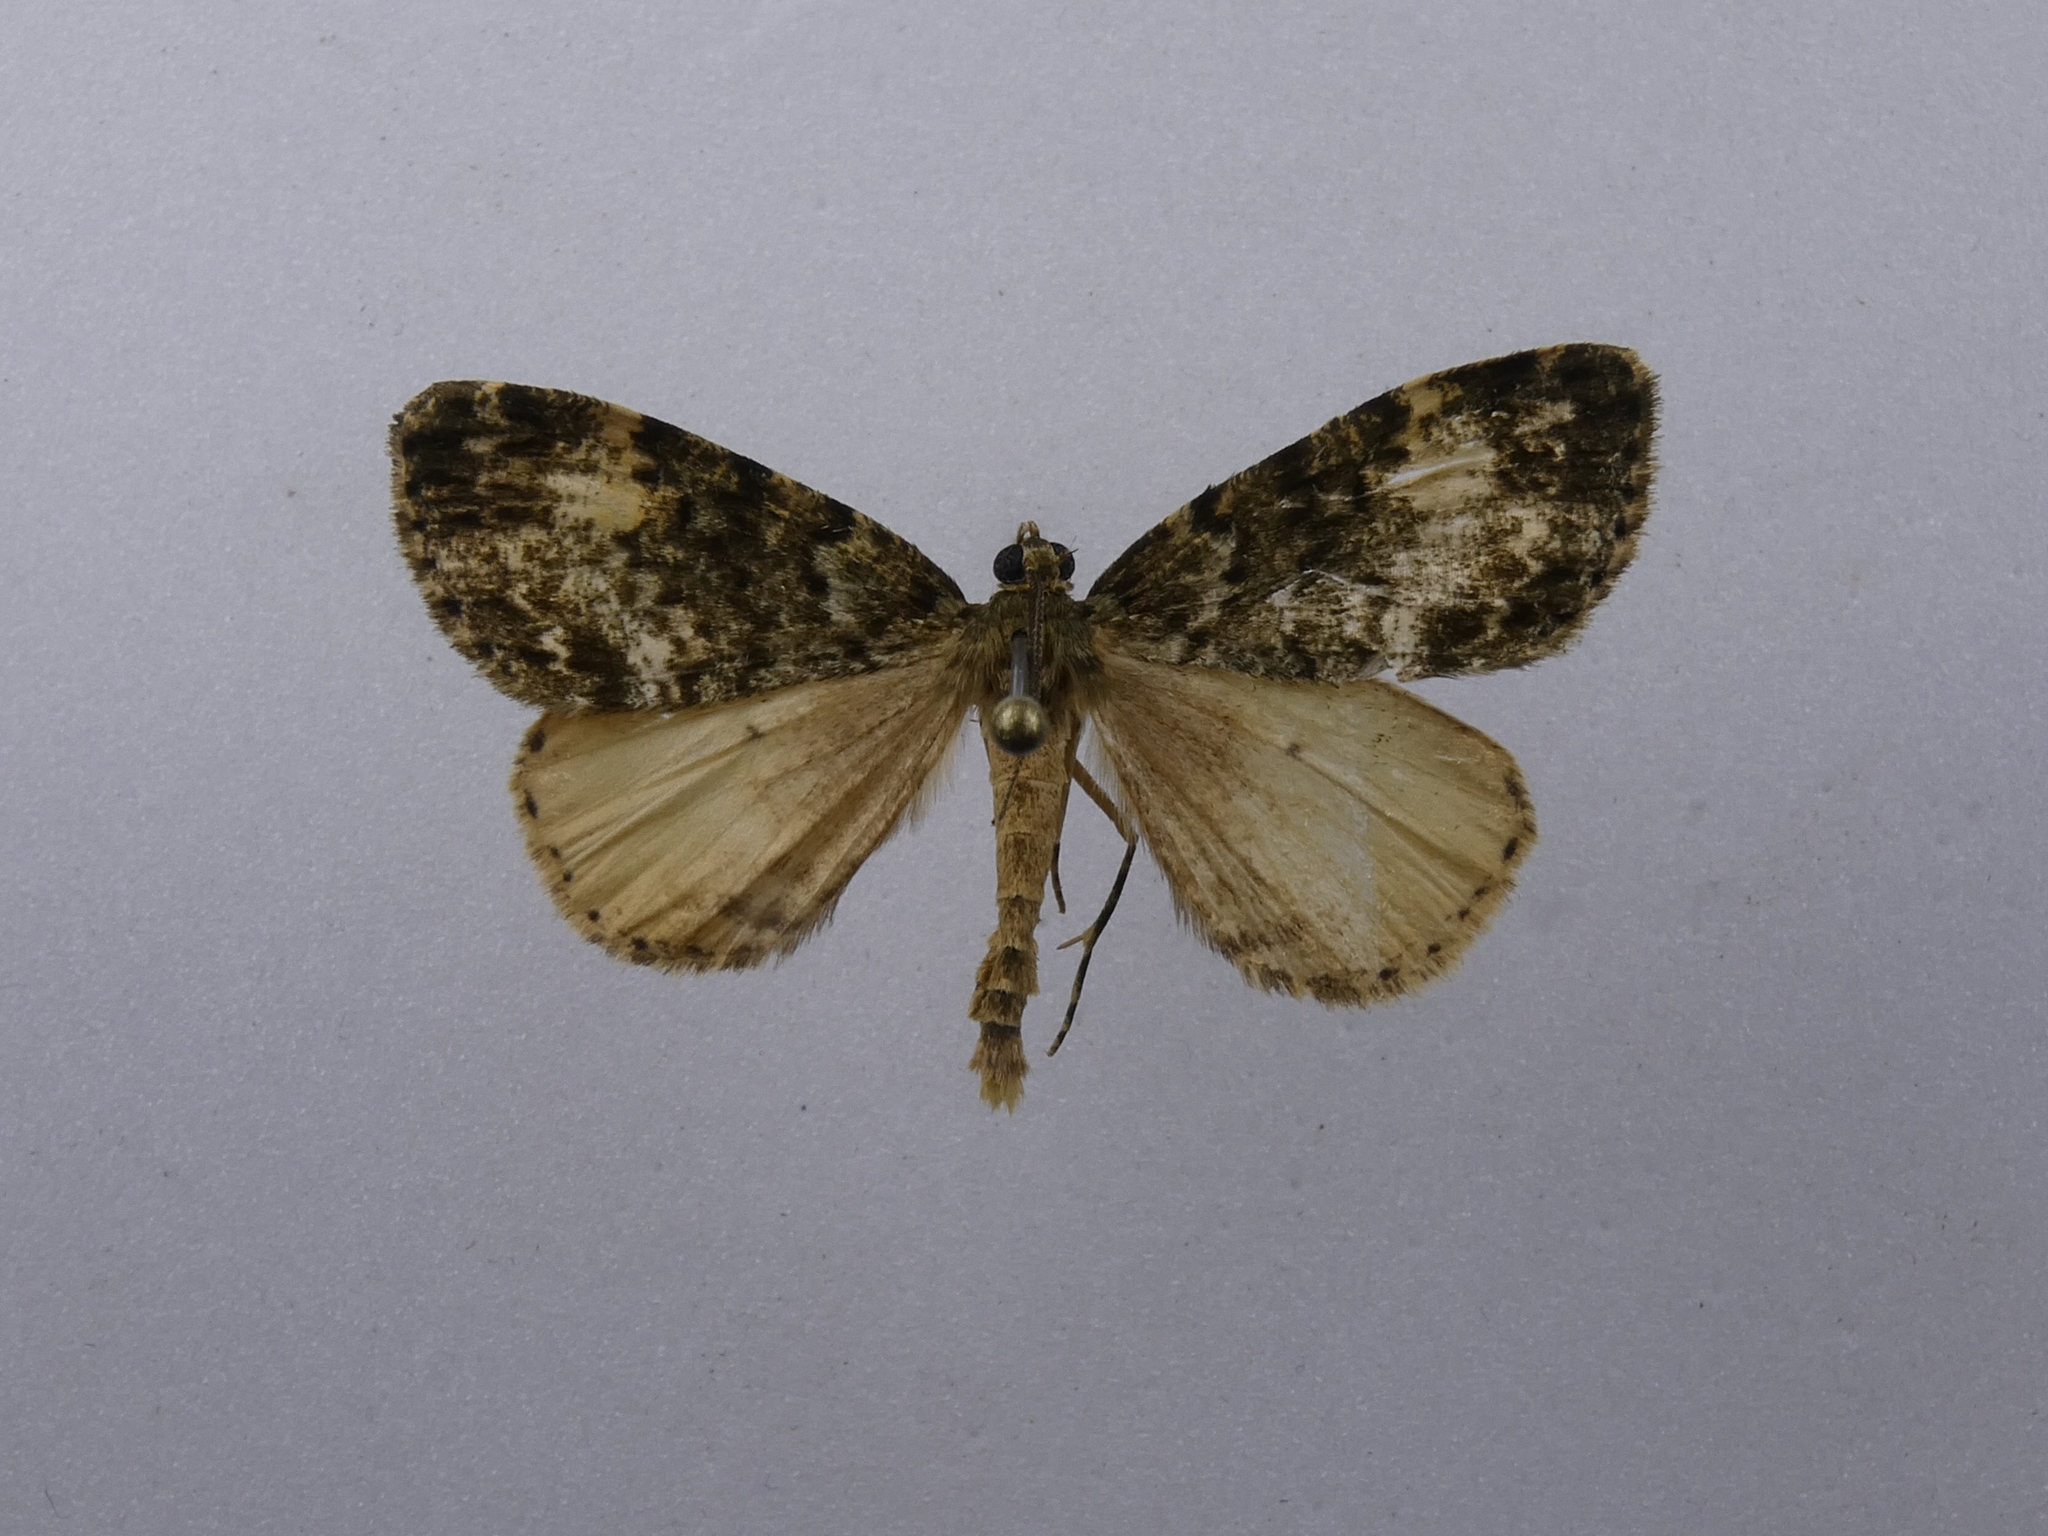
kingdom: Animalia
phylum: Arthropoda
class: Insecta
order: Lepidoptera
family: Geometridae
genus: Pseudocoremia
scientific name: Pseudocoremia indistincta
